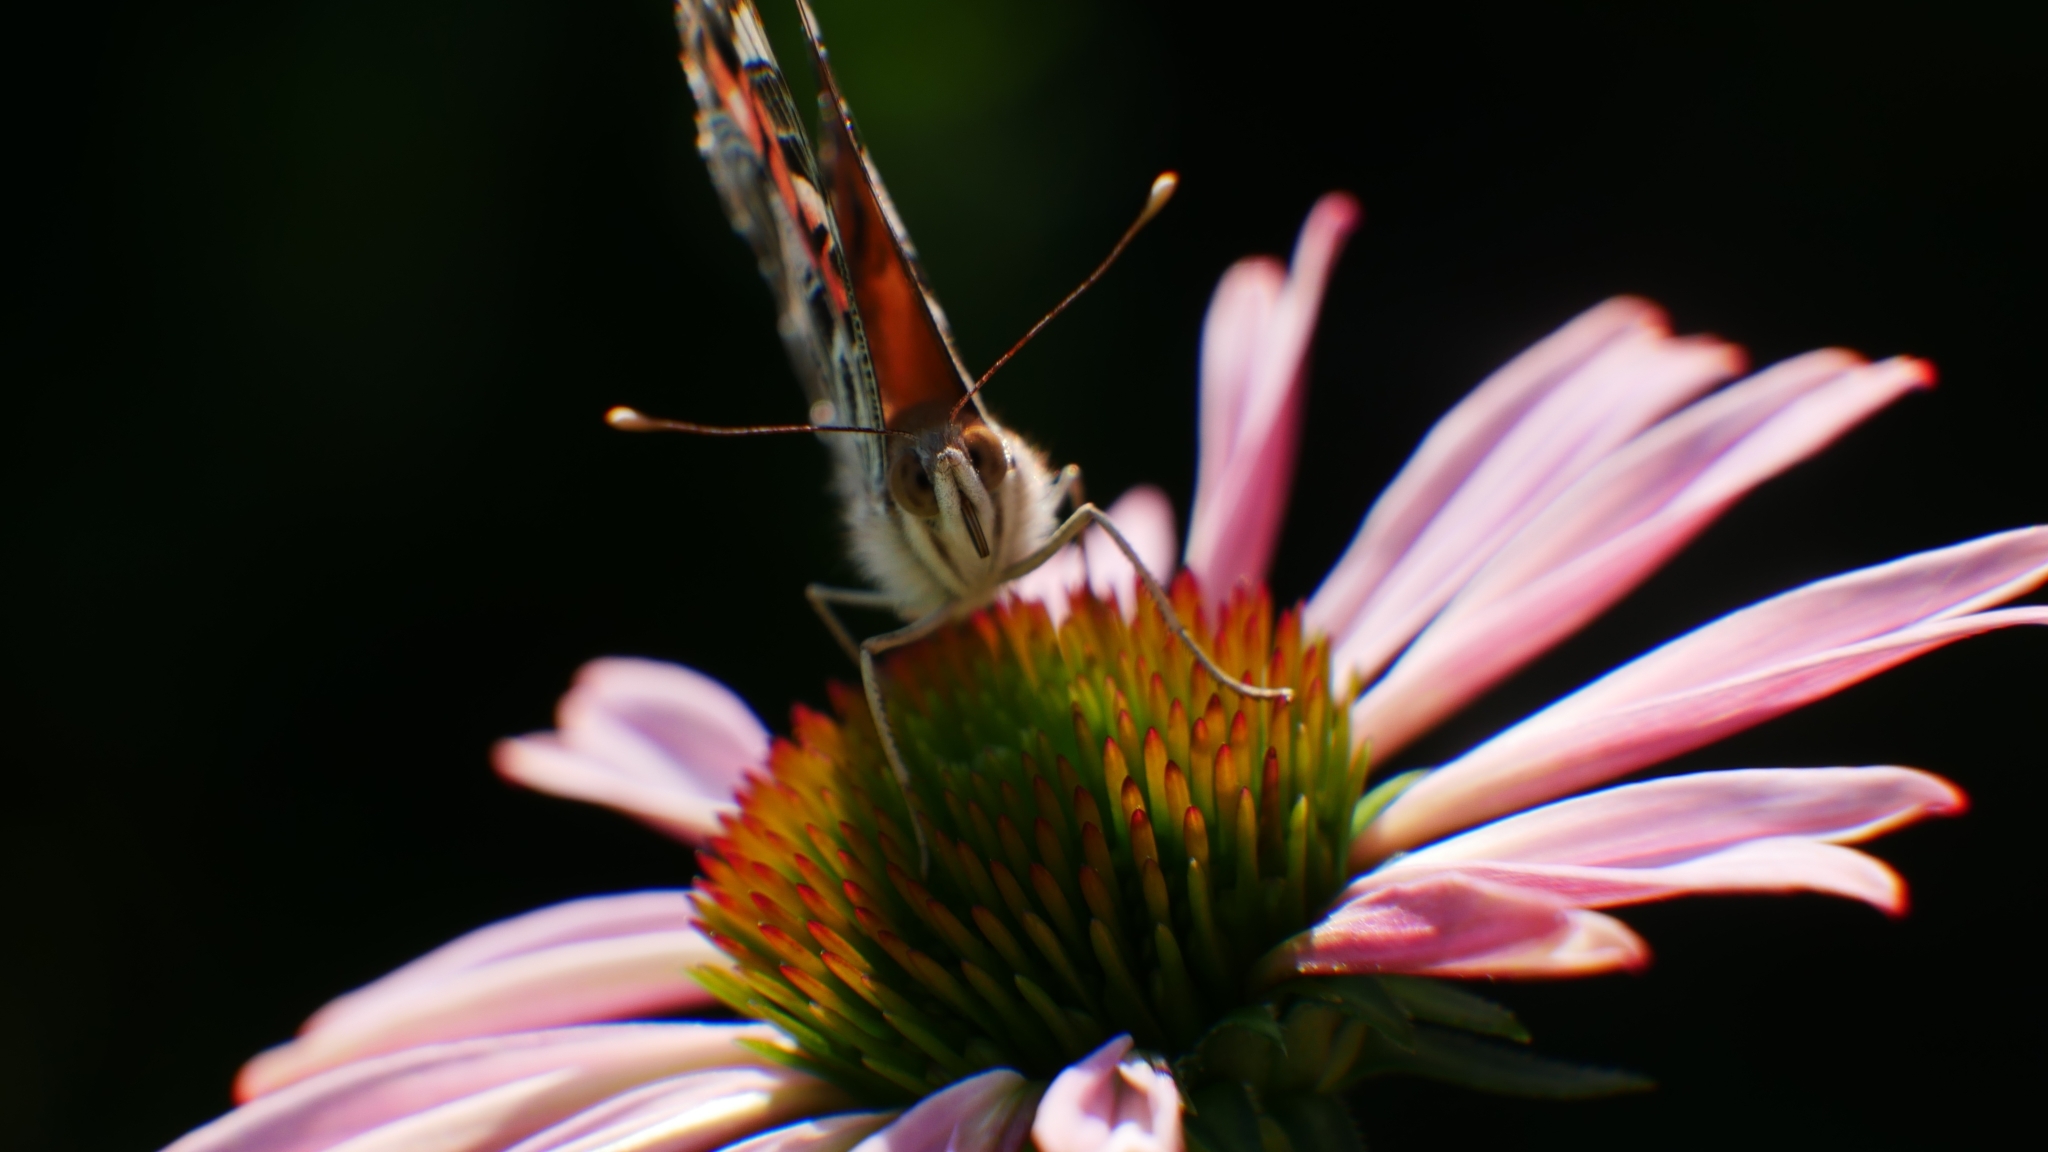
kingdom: Animalia
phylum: Arthropoda
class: Insecta
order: Lepidoptera
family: Nymphalidae
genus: Vanessa
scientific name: Vanessa virginiensis
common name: American lady
